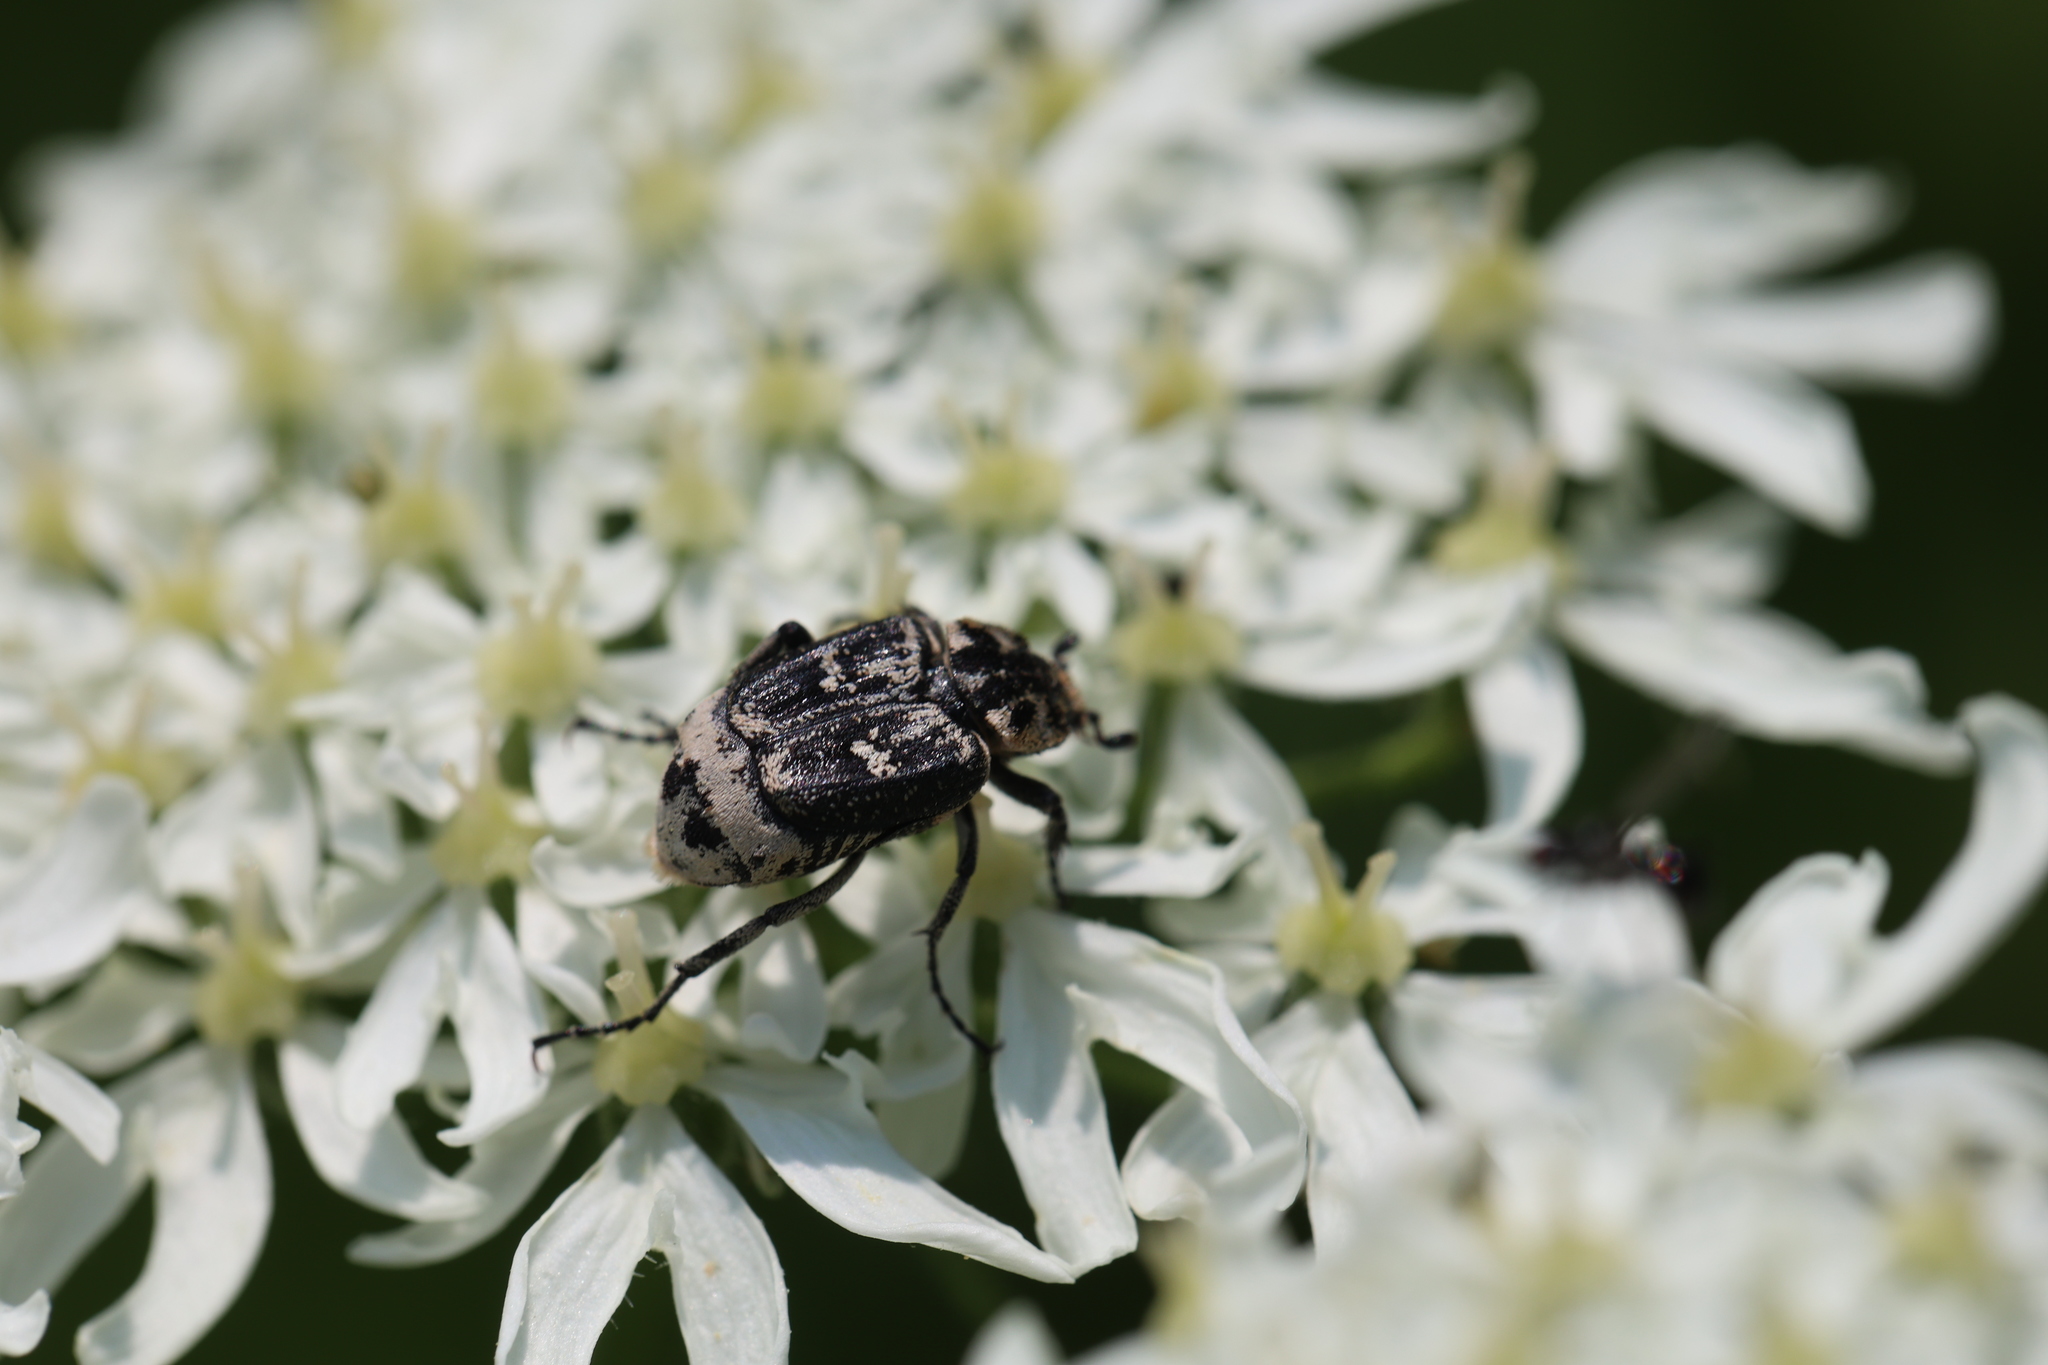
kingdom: Animalia
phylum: Arthropoda
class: Insecta
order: Coleoptera
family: Scarabaeidae
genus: Valgus
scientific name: Valgus hemipterus
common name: Bug flower chafer
